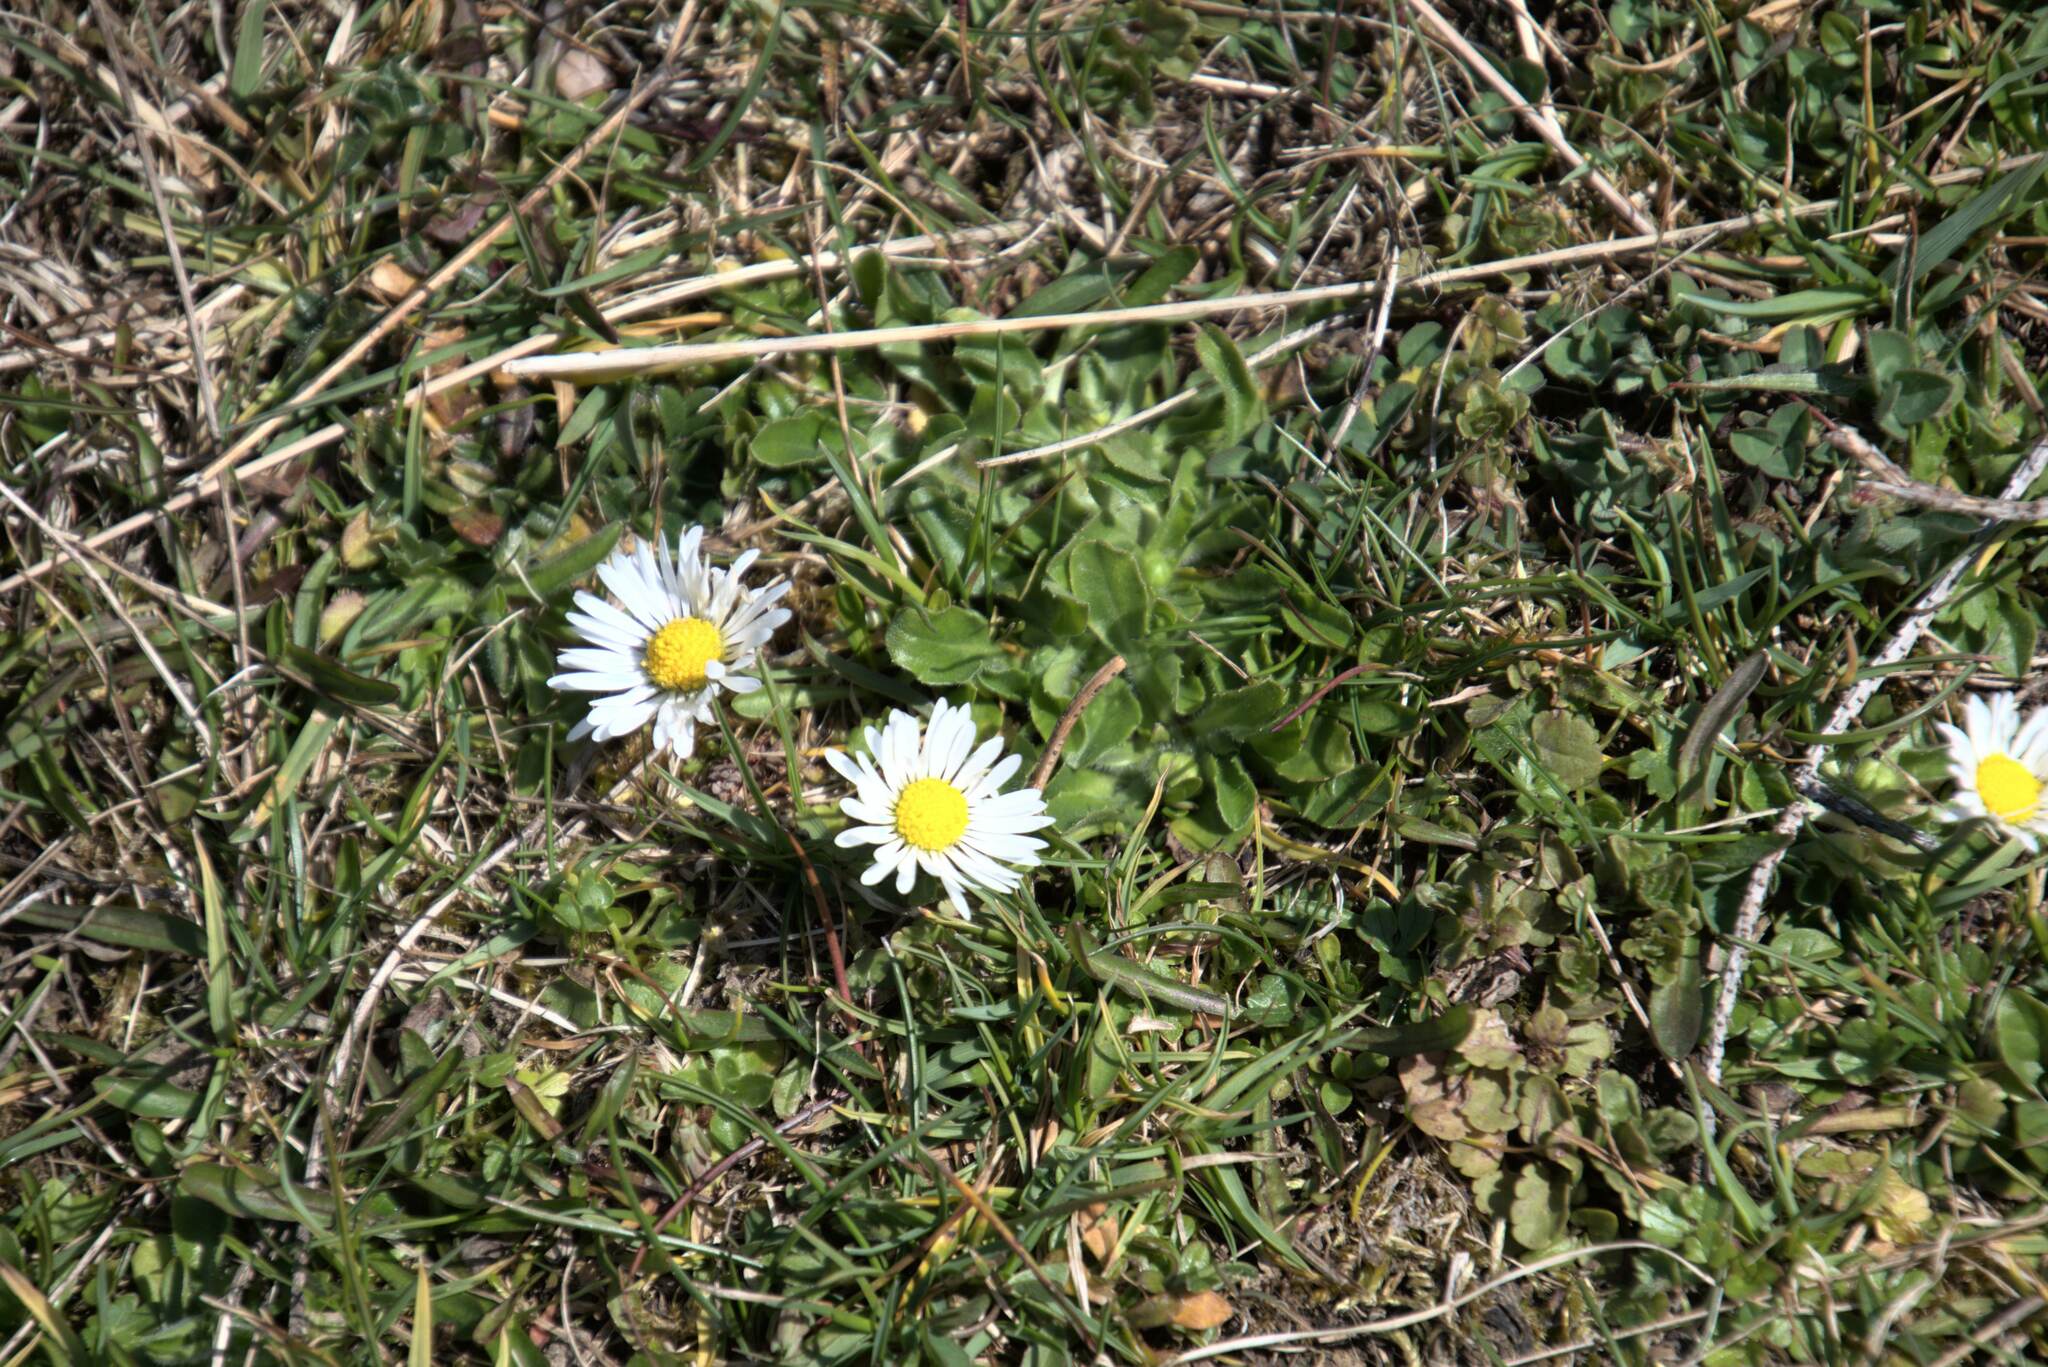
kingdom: Plantae
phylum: Tracheophyta
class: Magnoliopsida
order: Asterales
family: Asteraceae
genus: Bellis
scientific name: Bellis perennis
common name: Lawndaisy
